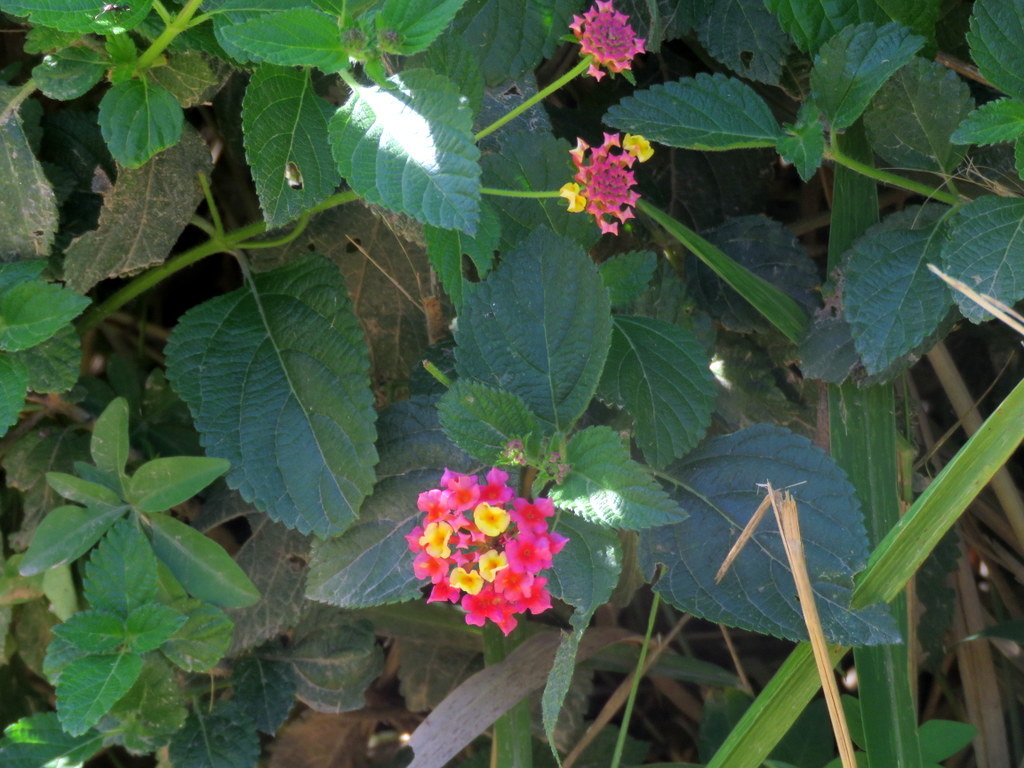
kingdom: Plantae
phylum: Tracheophyta
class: Magnoliopsida
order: Lamiales
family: Verbenaceae
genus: Lantana
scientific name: Lantana camara
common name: Lantana
